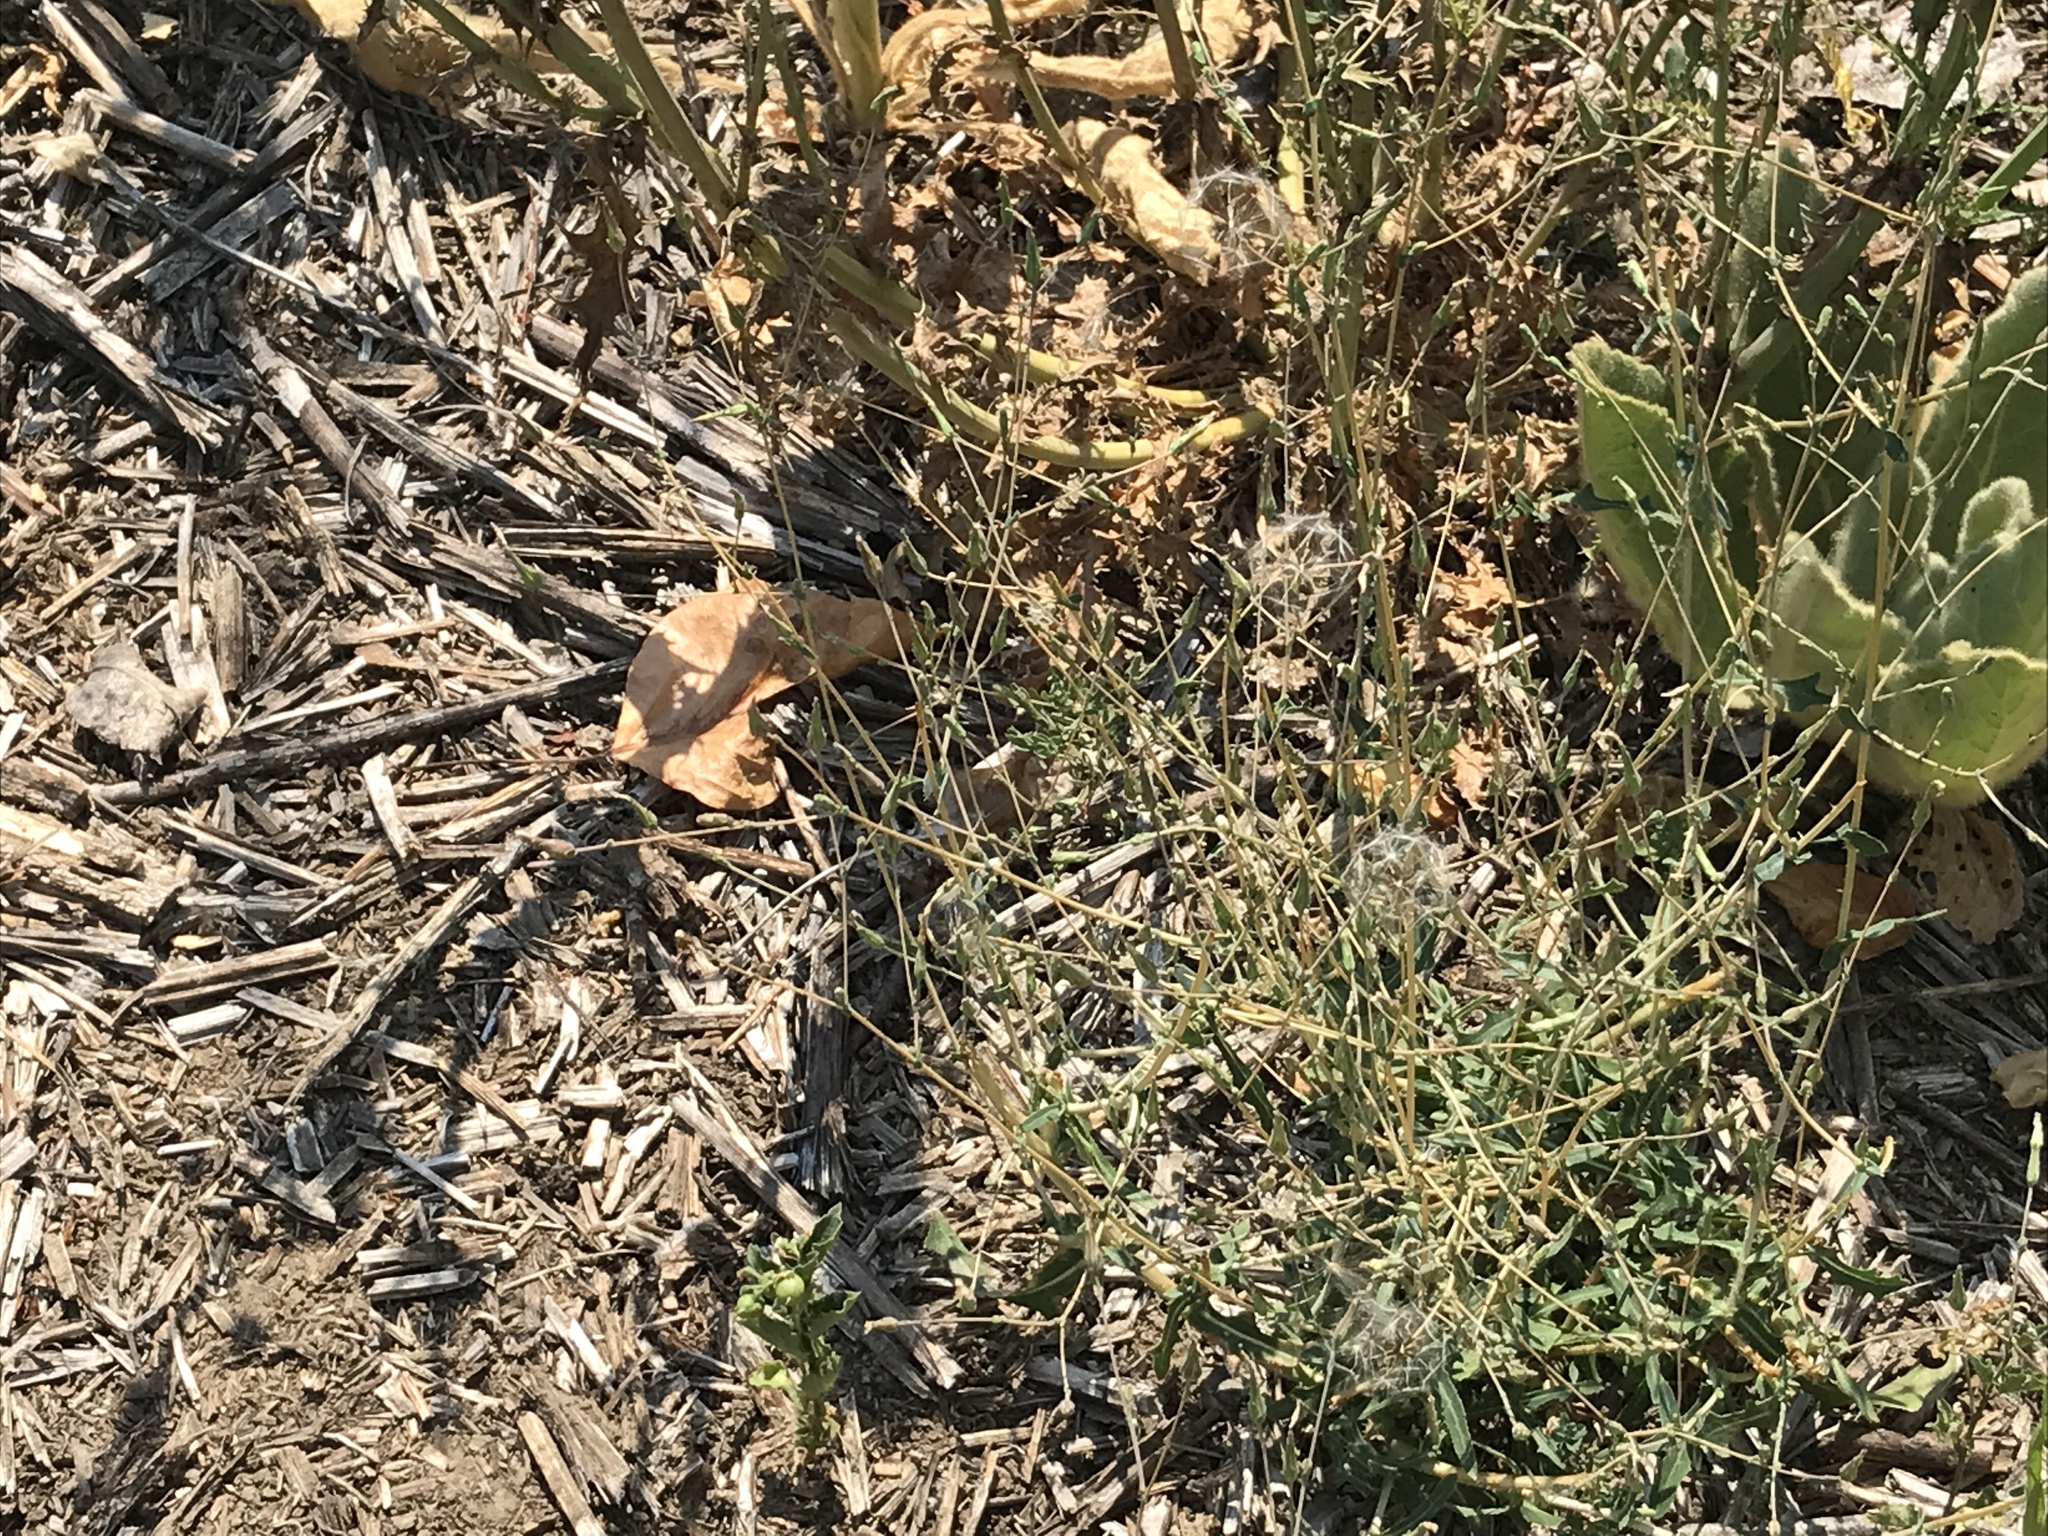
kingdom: Plantae
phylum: Tracheophyta
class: Magnoliopsida
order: Asterales
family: Asteraceae
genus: Lactuca
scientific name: Lactuca serriola
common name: Prickly lettuce
